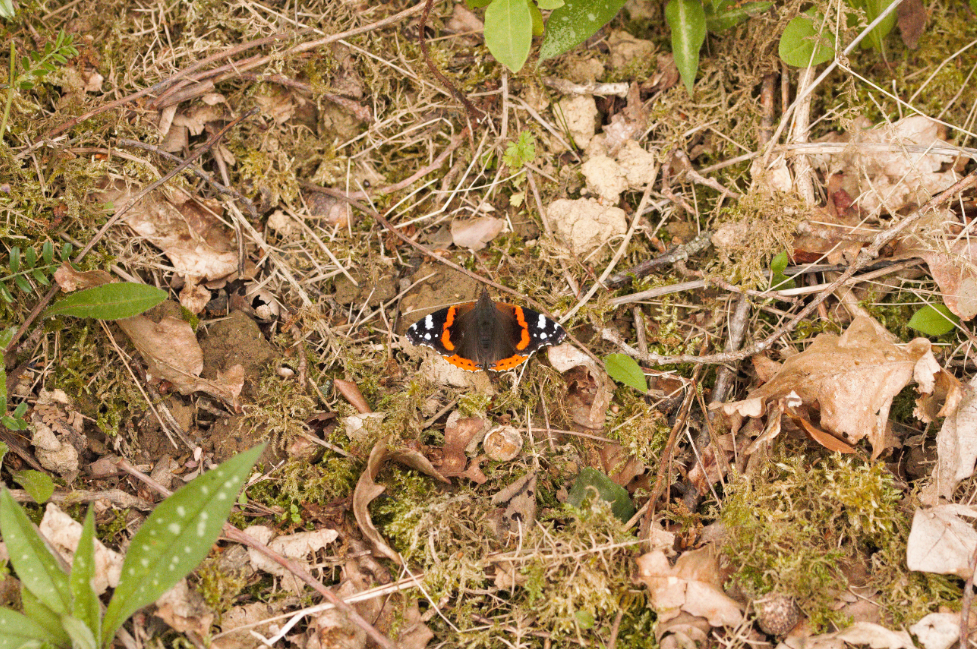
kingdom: Animalia
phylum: Arthropoda
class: Insecta
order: Lepidoptera
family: Nymphalidae
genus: Vanessa
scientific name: Vanessa atalanta
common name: Red admiral
